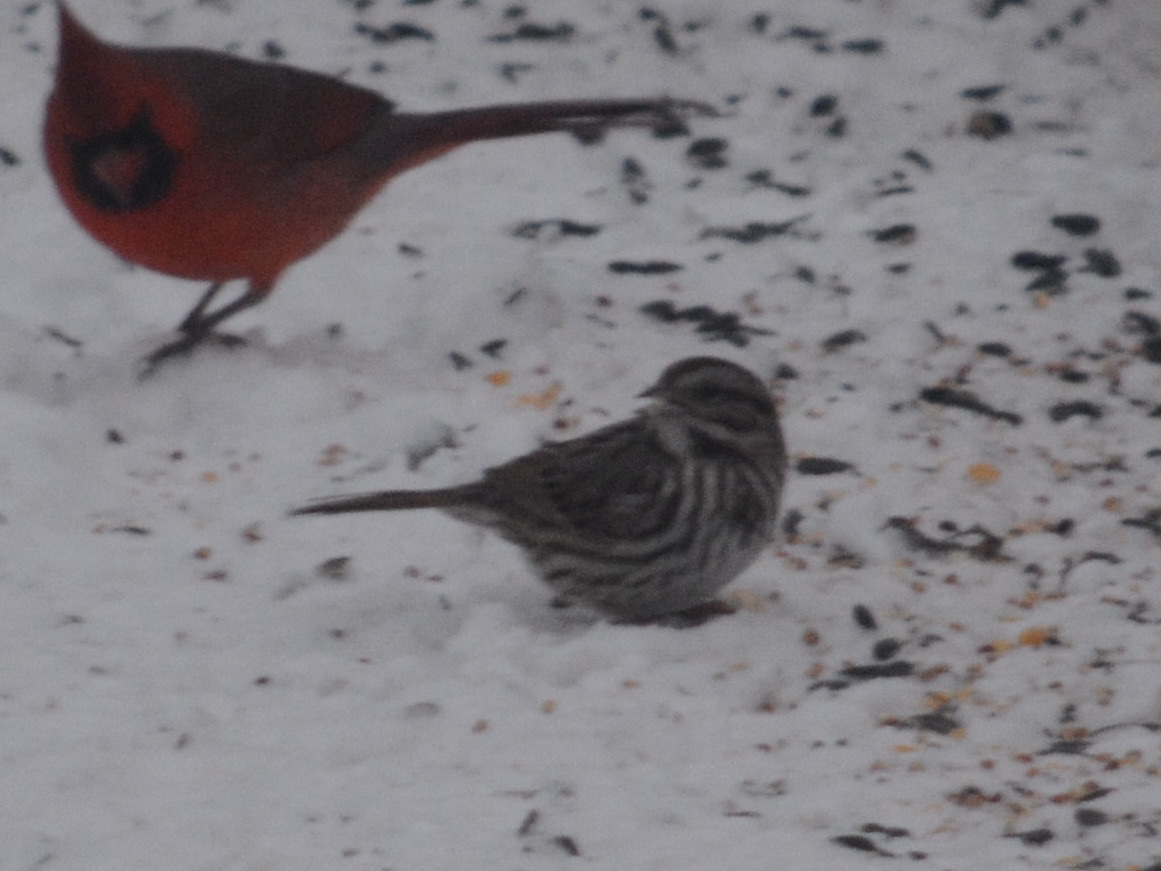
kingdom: Animalia
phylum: Chordata
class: Aves
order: Passeriformes
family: Passerellidae
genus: Melospiza
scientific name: Melospiza melodia
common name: Song sparrow
